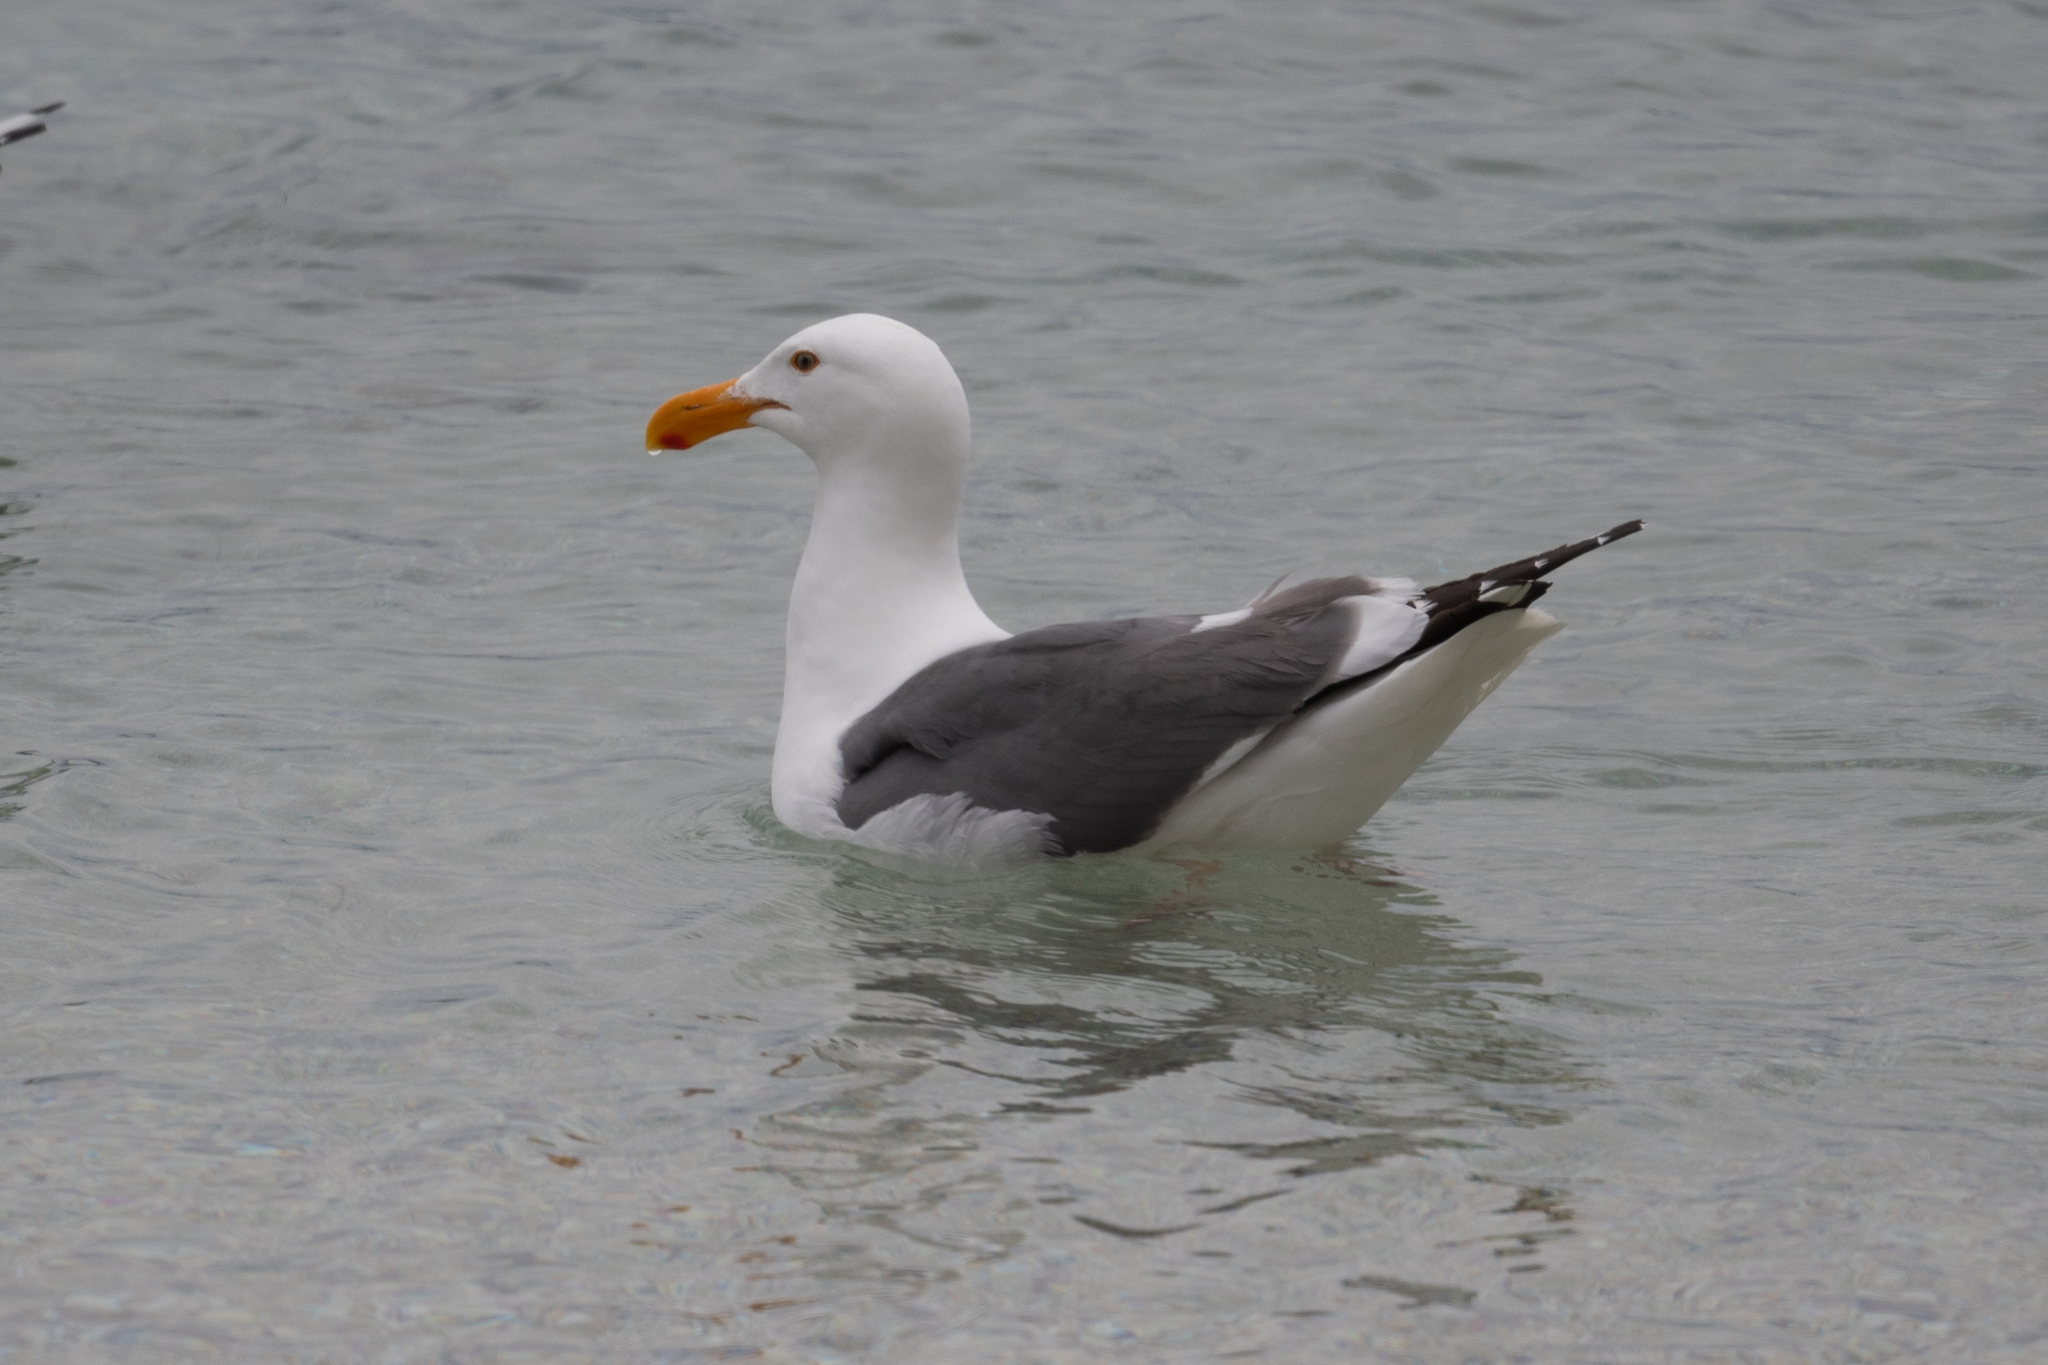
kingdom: Animalia
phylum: Chordata
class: Aves
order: Charadriiformes
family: Laridae
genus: Larus
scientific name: Larus occidentalis
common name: Western gull
